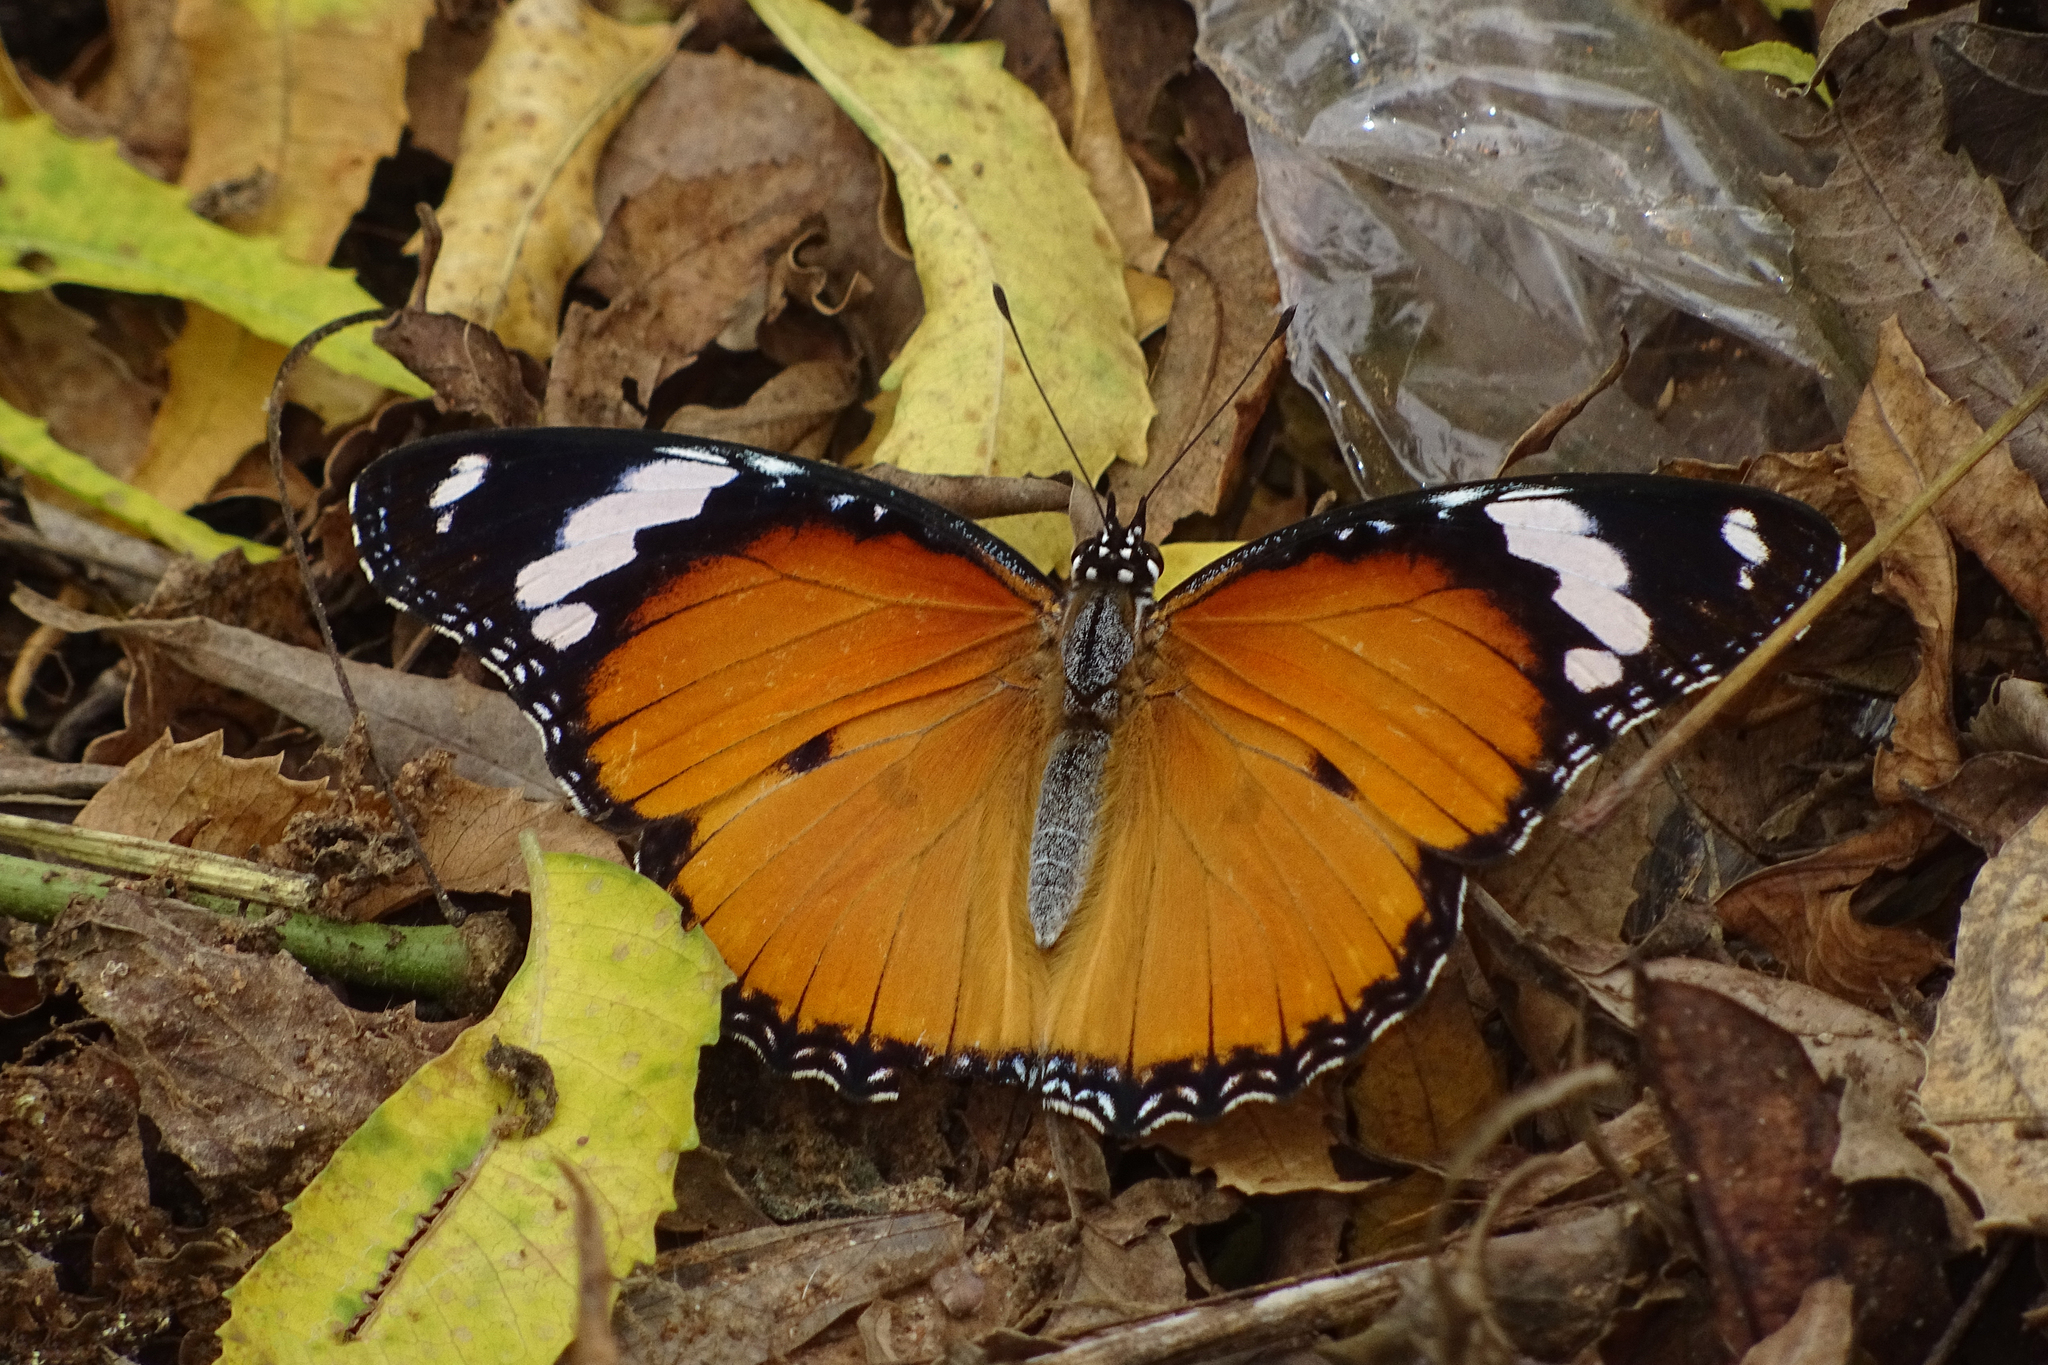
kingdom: Animalia
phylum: Arthropoda
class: Insecta
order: Lepidoptera
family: Nymphalidae
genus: Hypolimnas
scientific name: Hypolimnas misippus
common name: False plain tiger
